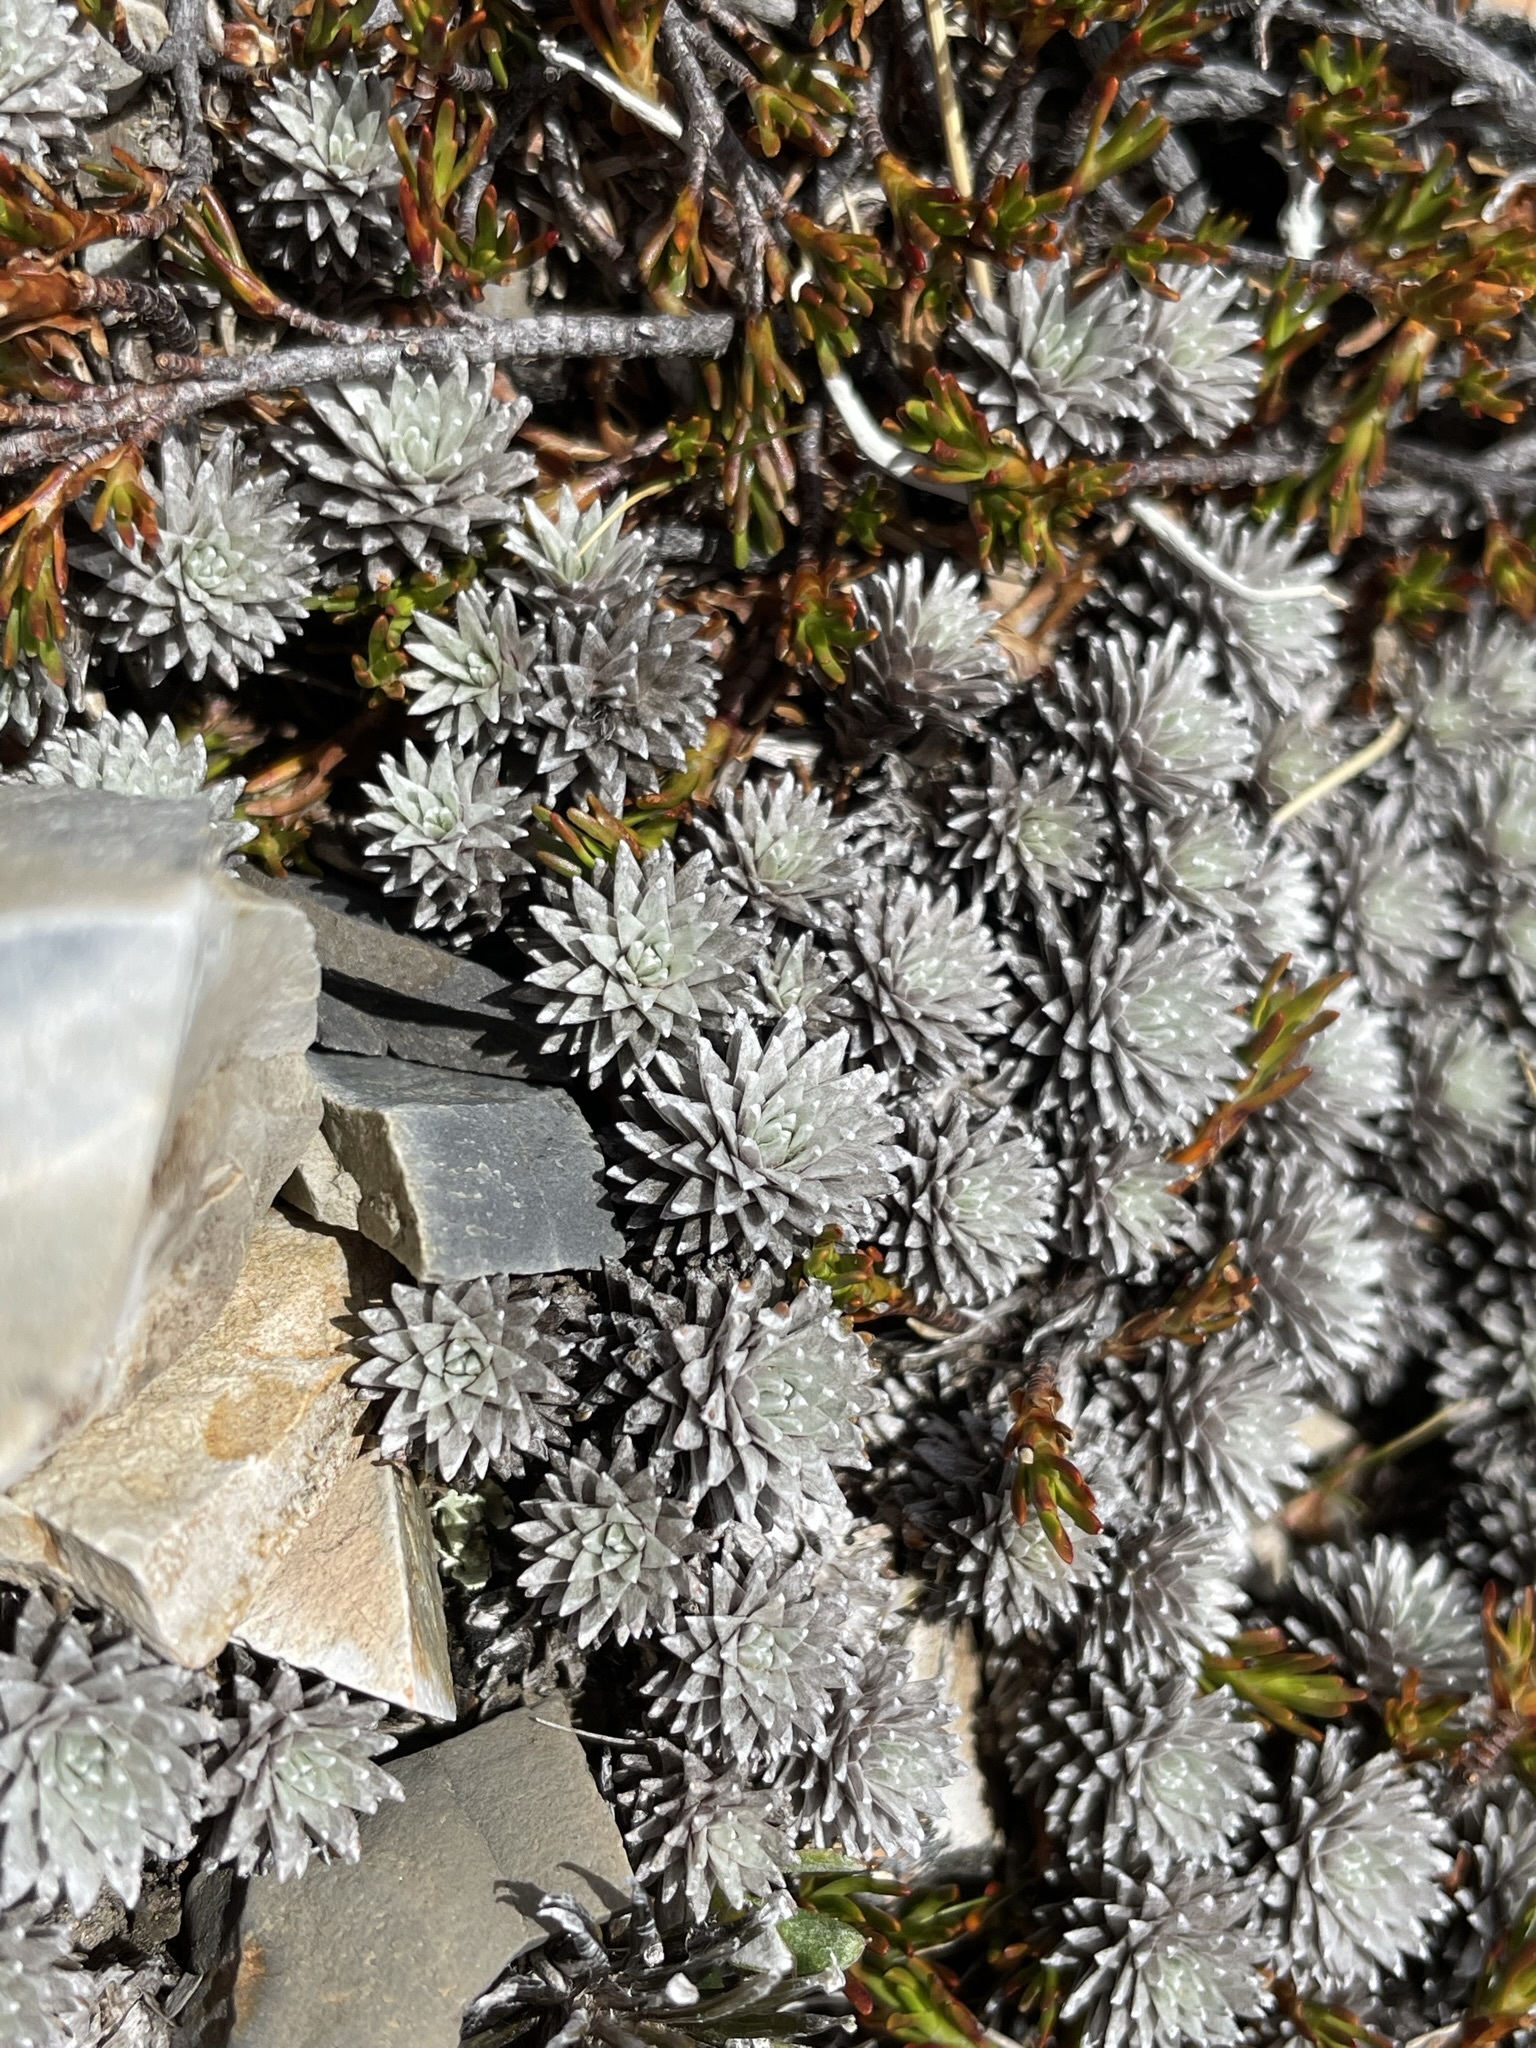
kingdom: Plantae
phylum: Tracheophyta
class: Magnoliopsida
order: Asterales
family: Asteraceae
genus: Raoulia
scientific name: Raoulia grandiflora
